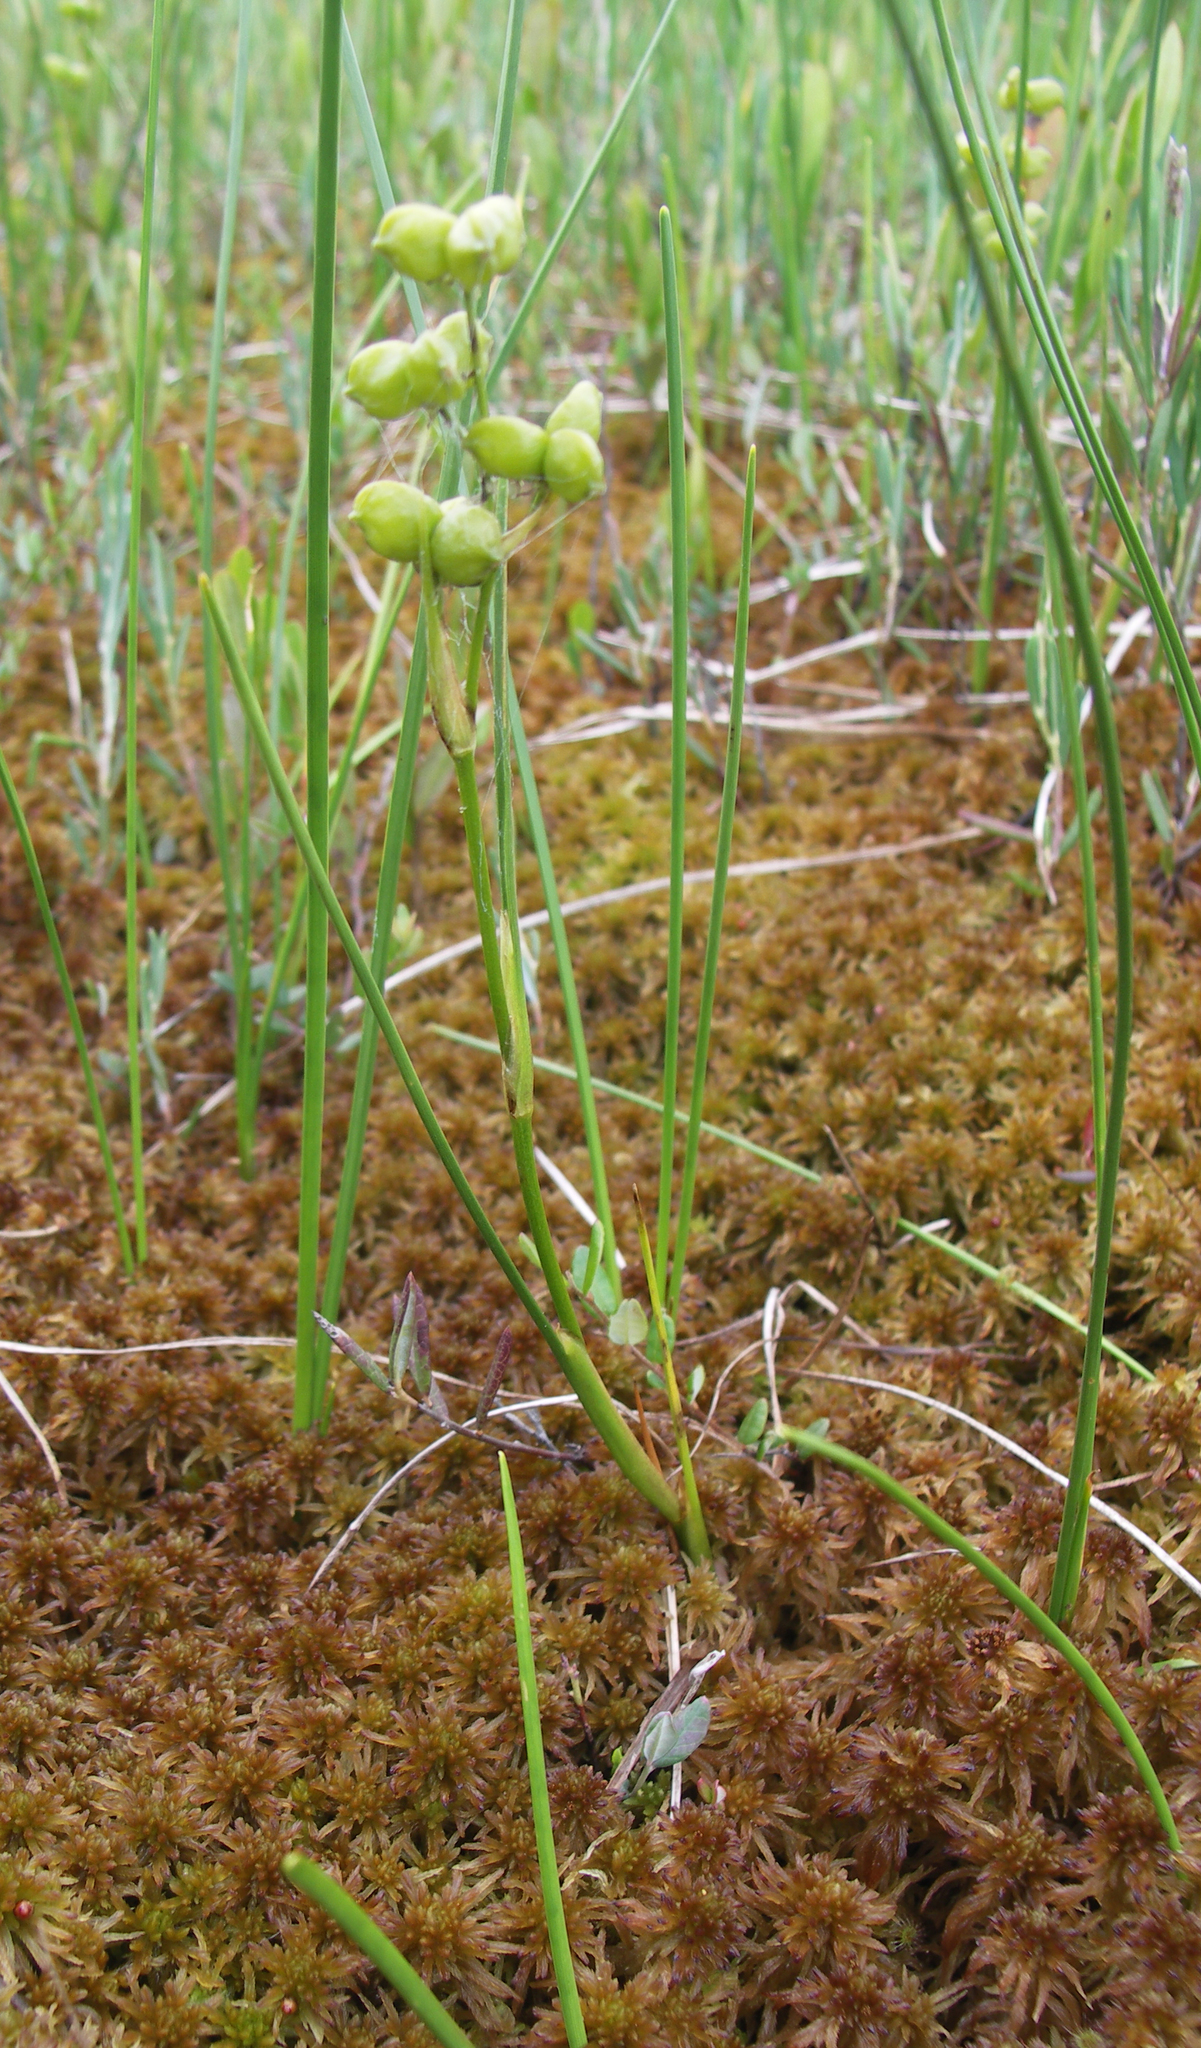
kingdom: Plantae
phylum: Tracheophyta
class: Liliopsida
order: Alismatales
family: Scheuchzeriaceae
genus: Scheuchzeria
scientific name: Scheuchzeria palustris
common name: Rannoch-rush
